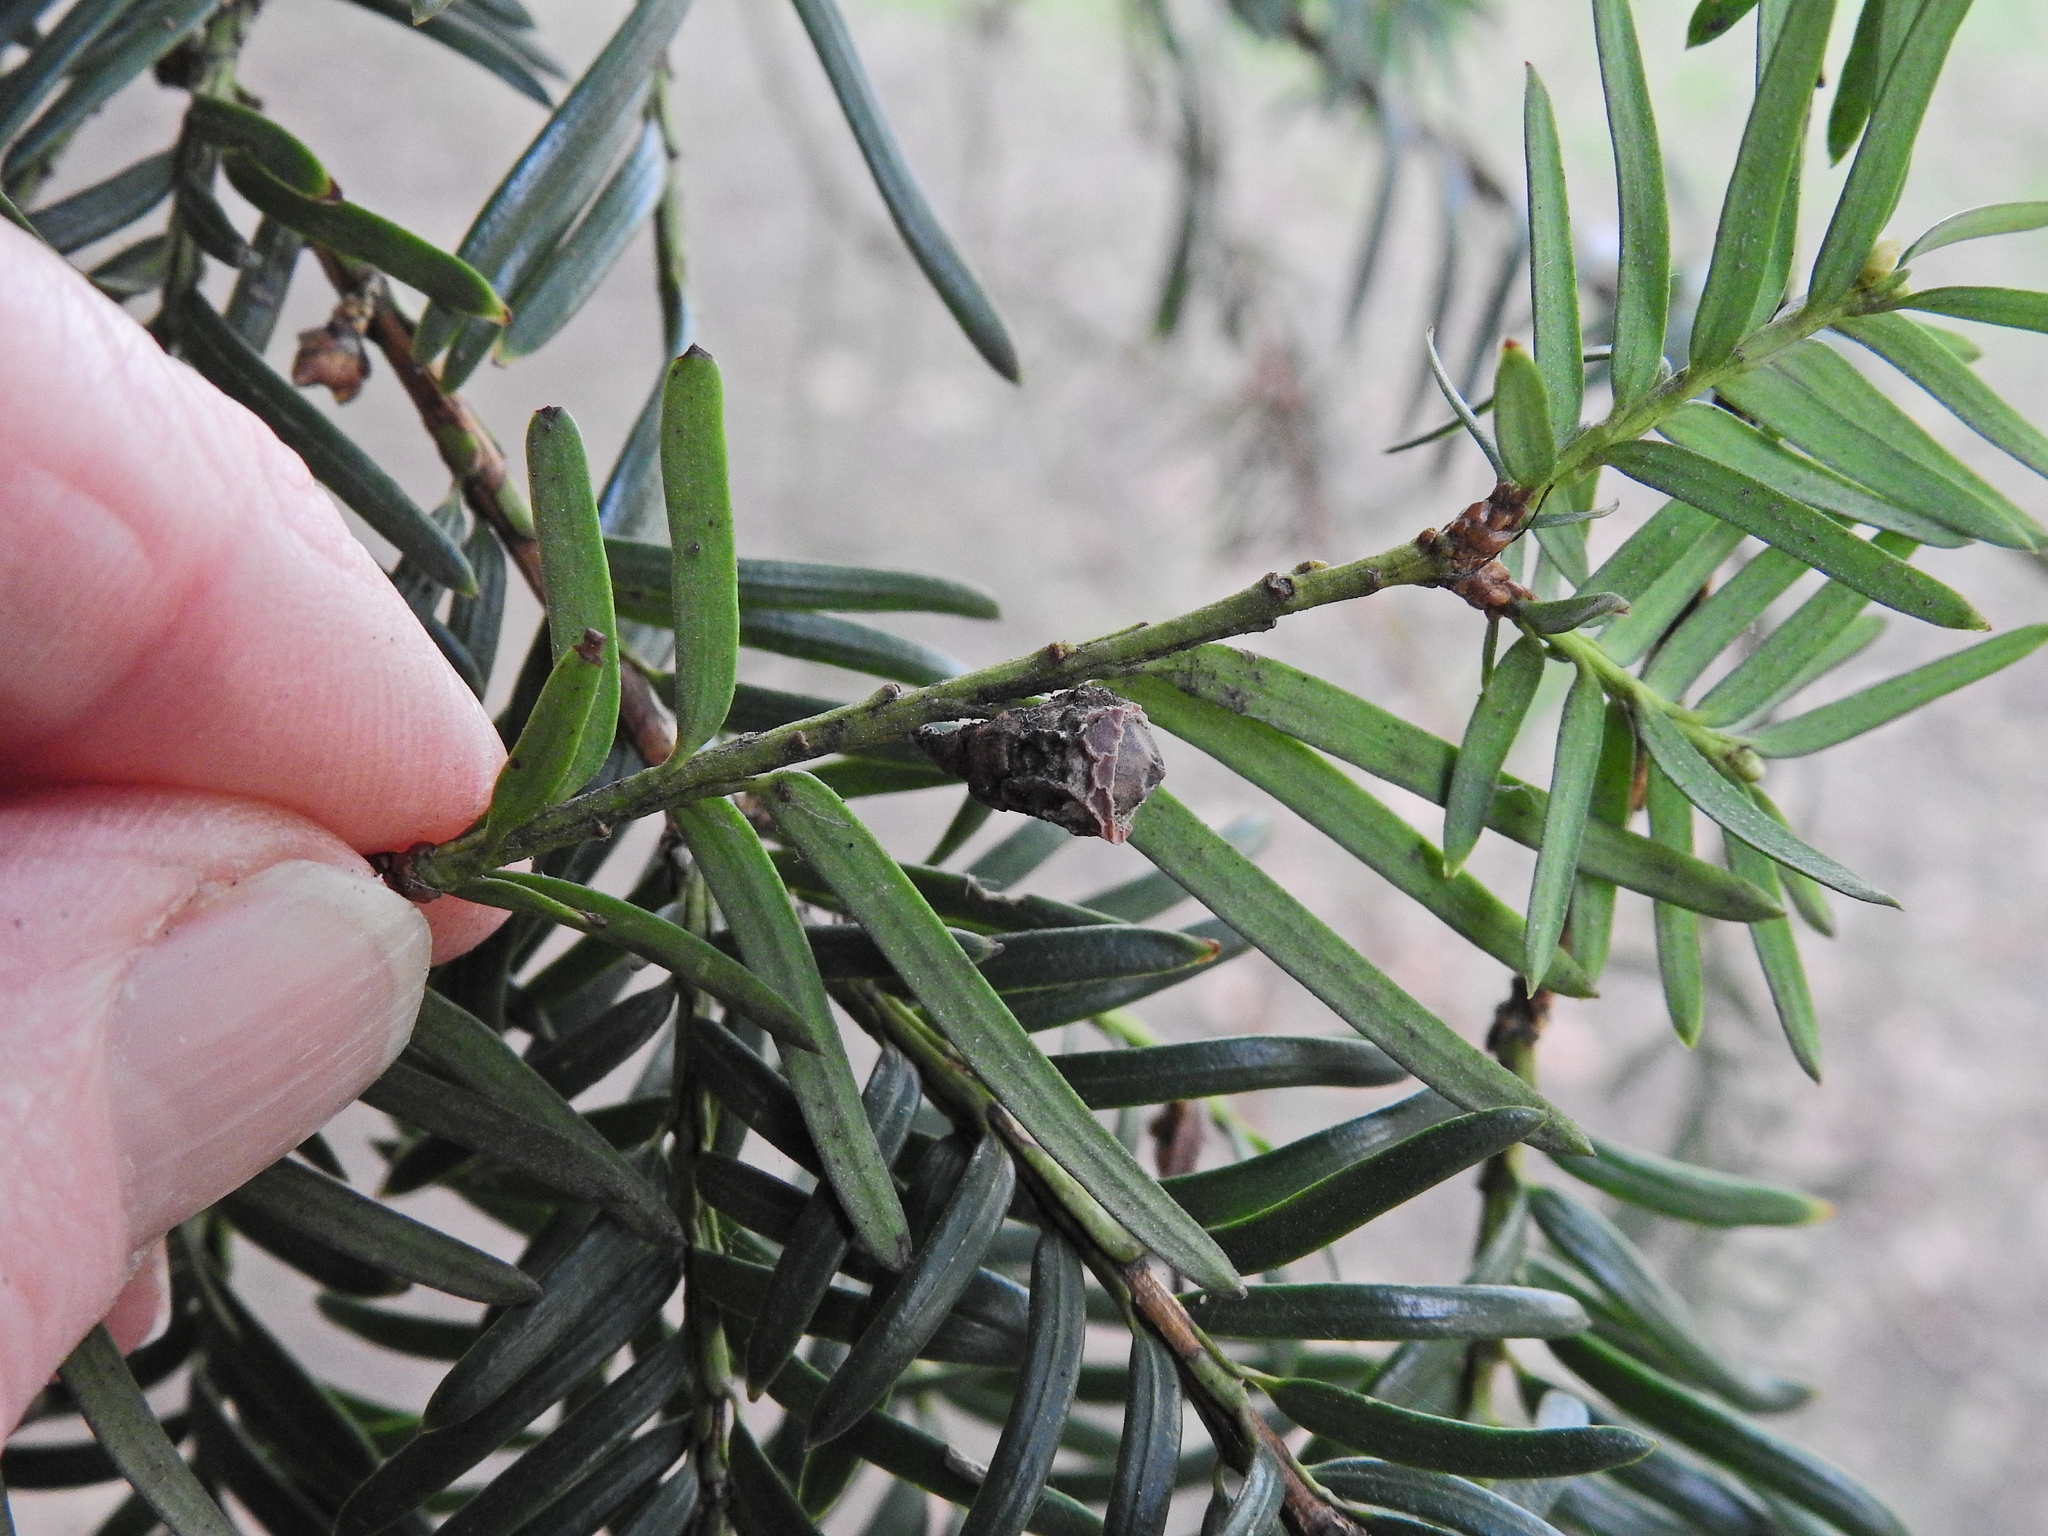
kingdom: Animalia
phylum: Arthropoda
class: Arachnida
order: Trombidiformes
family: Eriophyidae
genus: Cecidophyopsis
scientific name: Cecidophyopsis psilaspis
